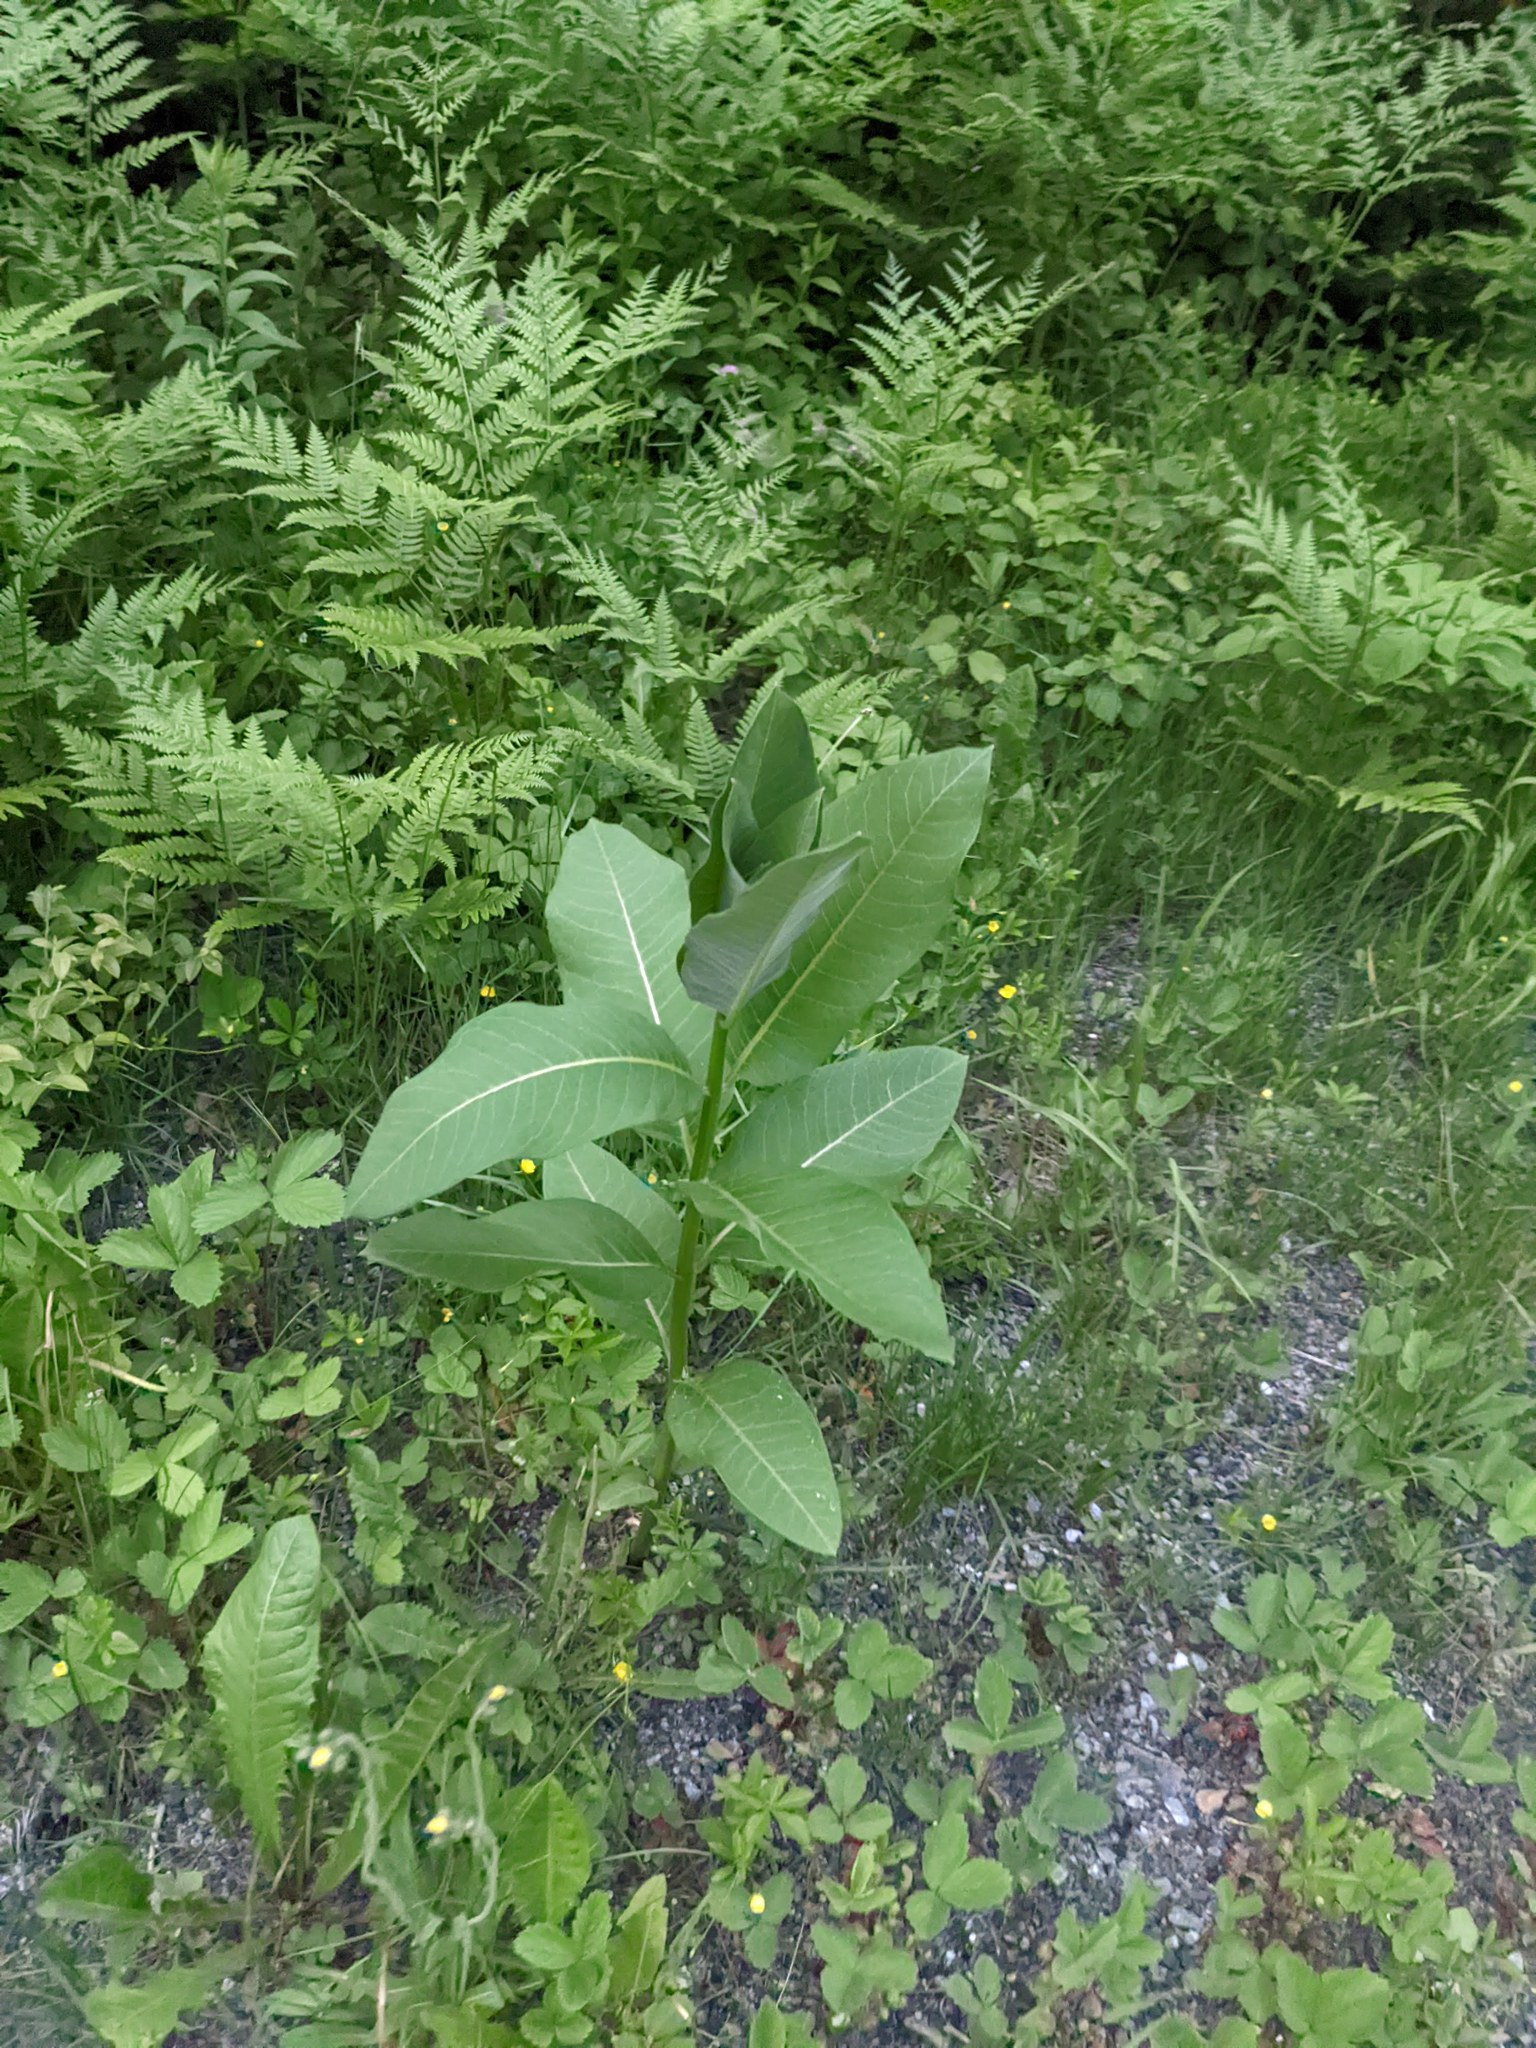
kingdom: Plantae
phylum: Tracheophyta
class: Magnoliopsida
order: Gentianales
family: Apocynaceae
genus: Asclepias
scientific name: Asclepias syriaca
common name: Common milkweed
